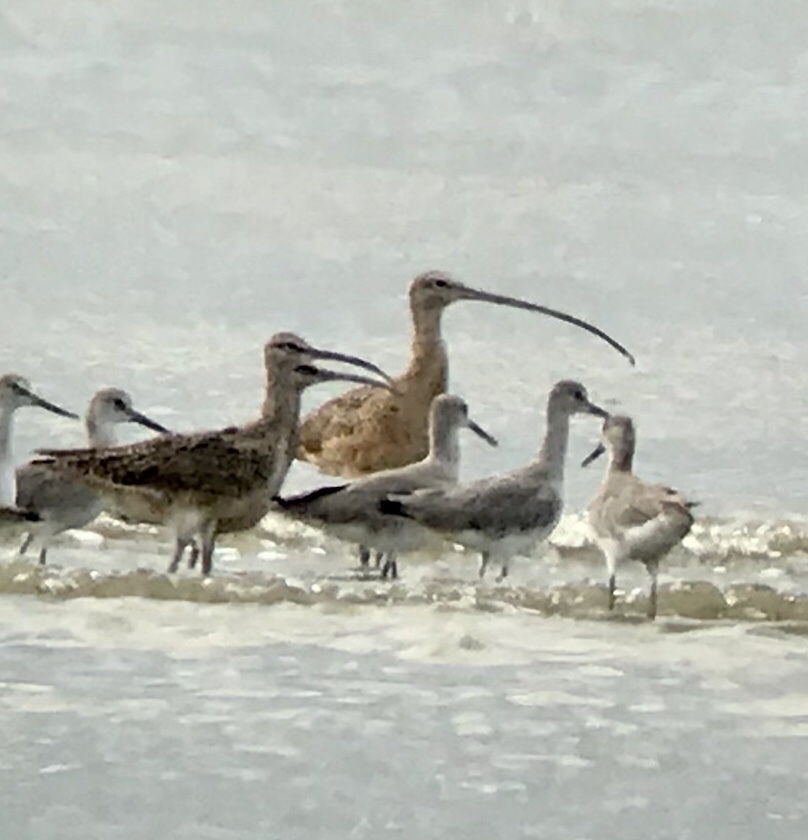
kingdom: Animalia
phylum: Chordata
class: Aves
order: Charadriiformes
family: Scolopacidae
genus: Numenius
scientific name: Numenius americanus
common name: Long-billed curlew
